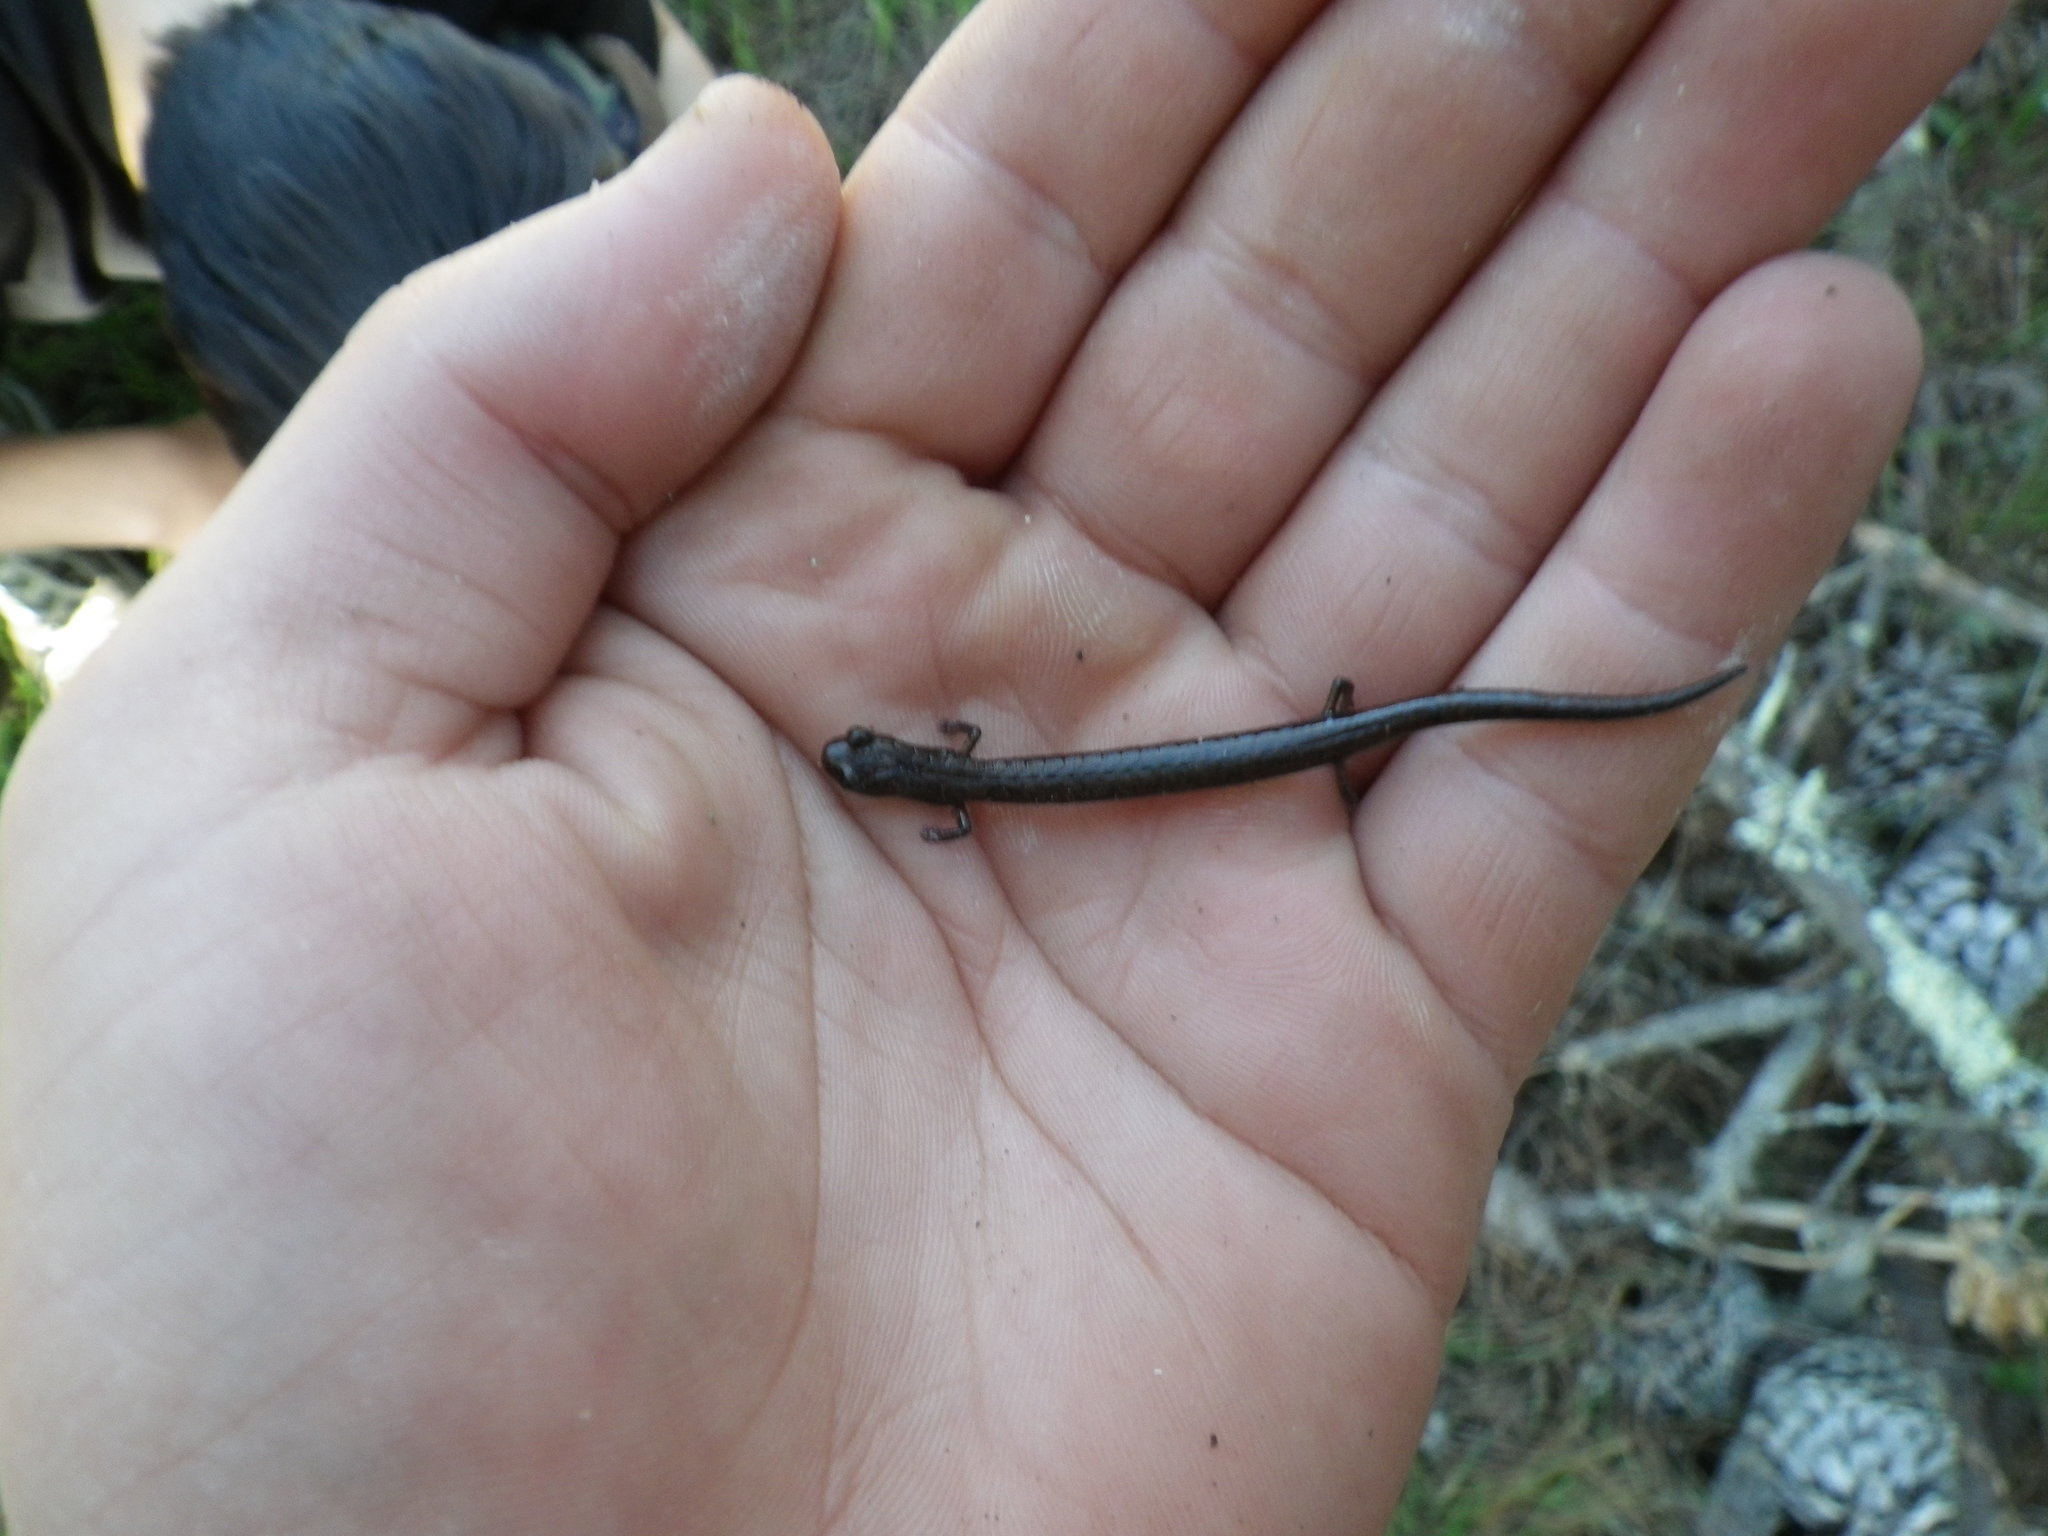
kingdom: Animalia
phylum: Chordata
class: Amphibia
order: Caudata
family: Plethodontidae
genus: Batrachoseps
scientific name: Batrachoseps attenuatus
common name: California slender salamander
